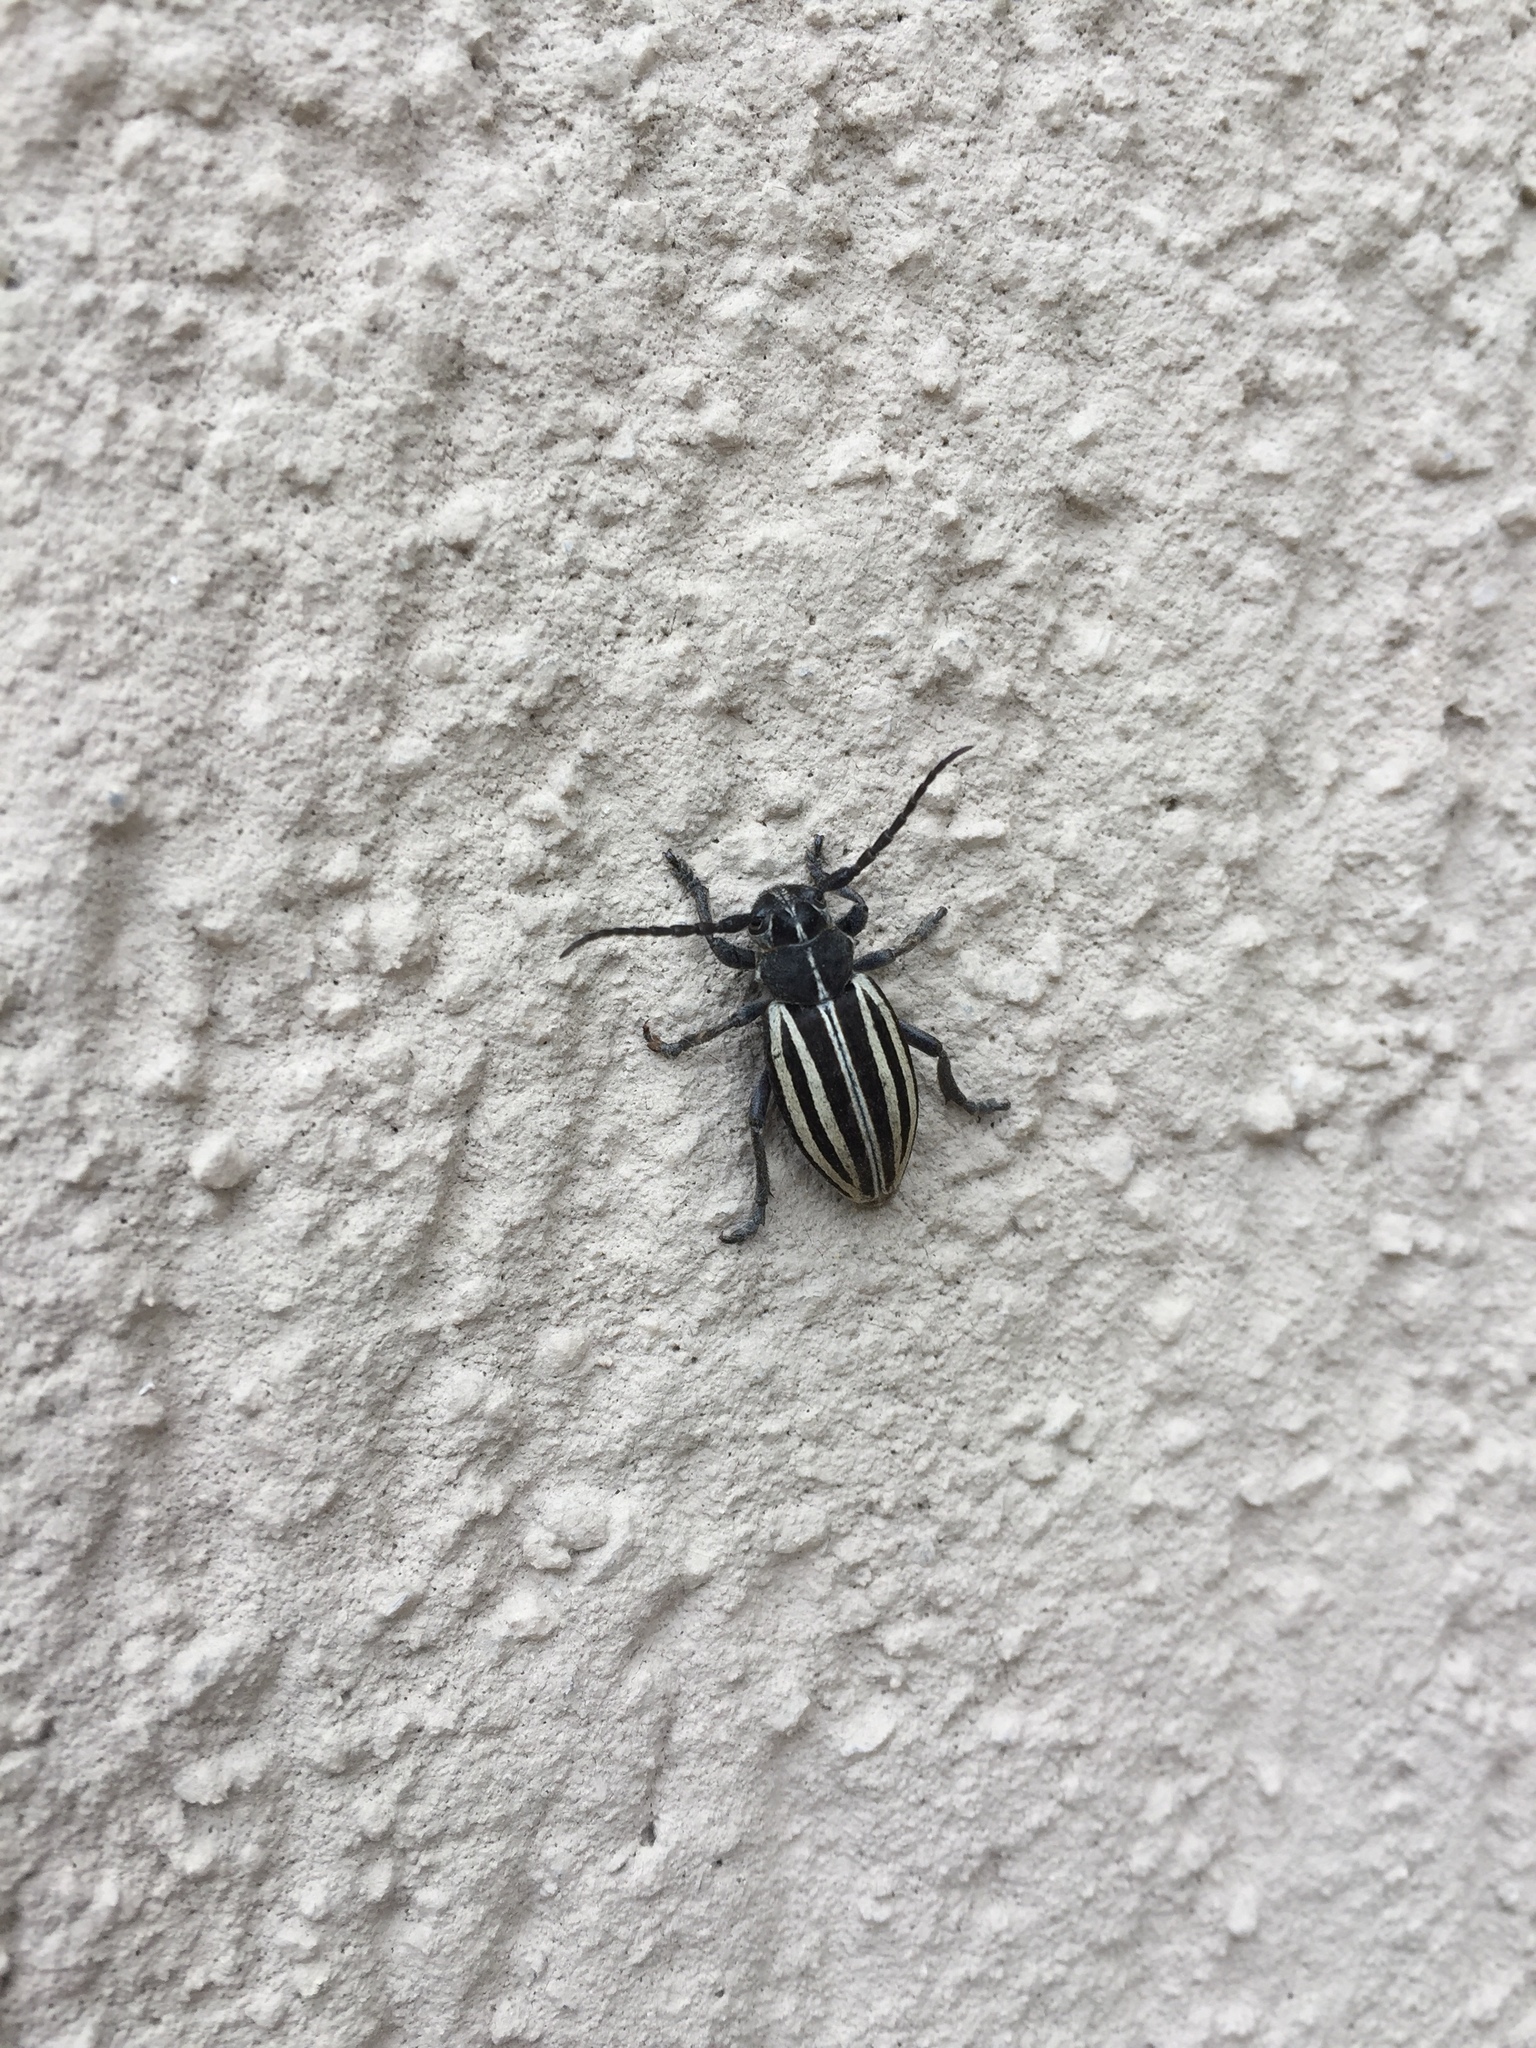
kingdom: Animalia
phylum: Arthropoda
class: Insecta
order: Coleoptera
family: Cerambycidae
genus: Dorcadion
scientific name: Dorcadion scopolii
